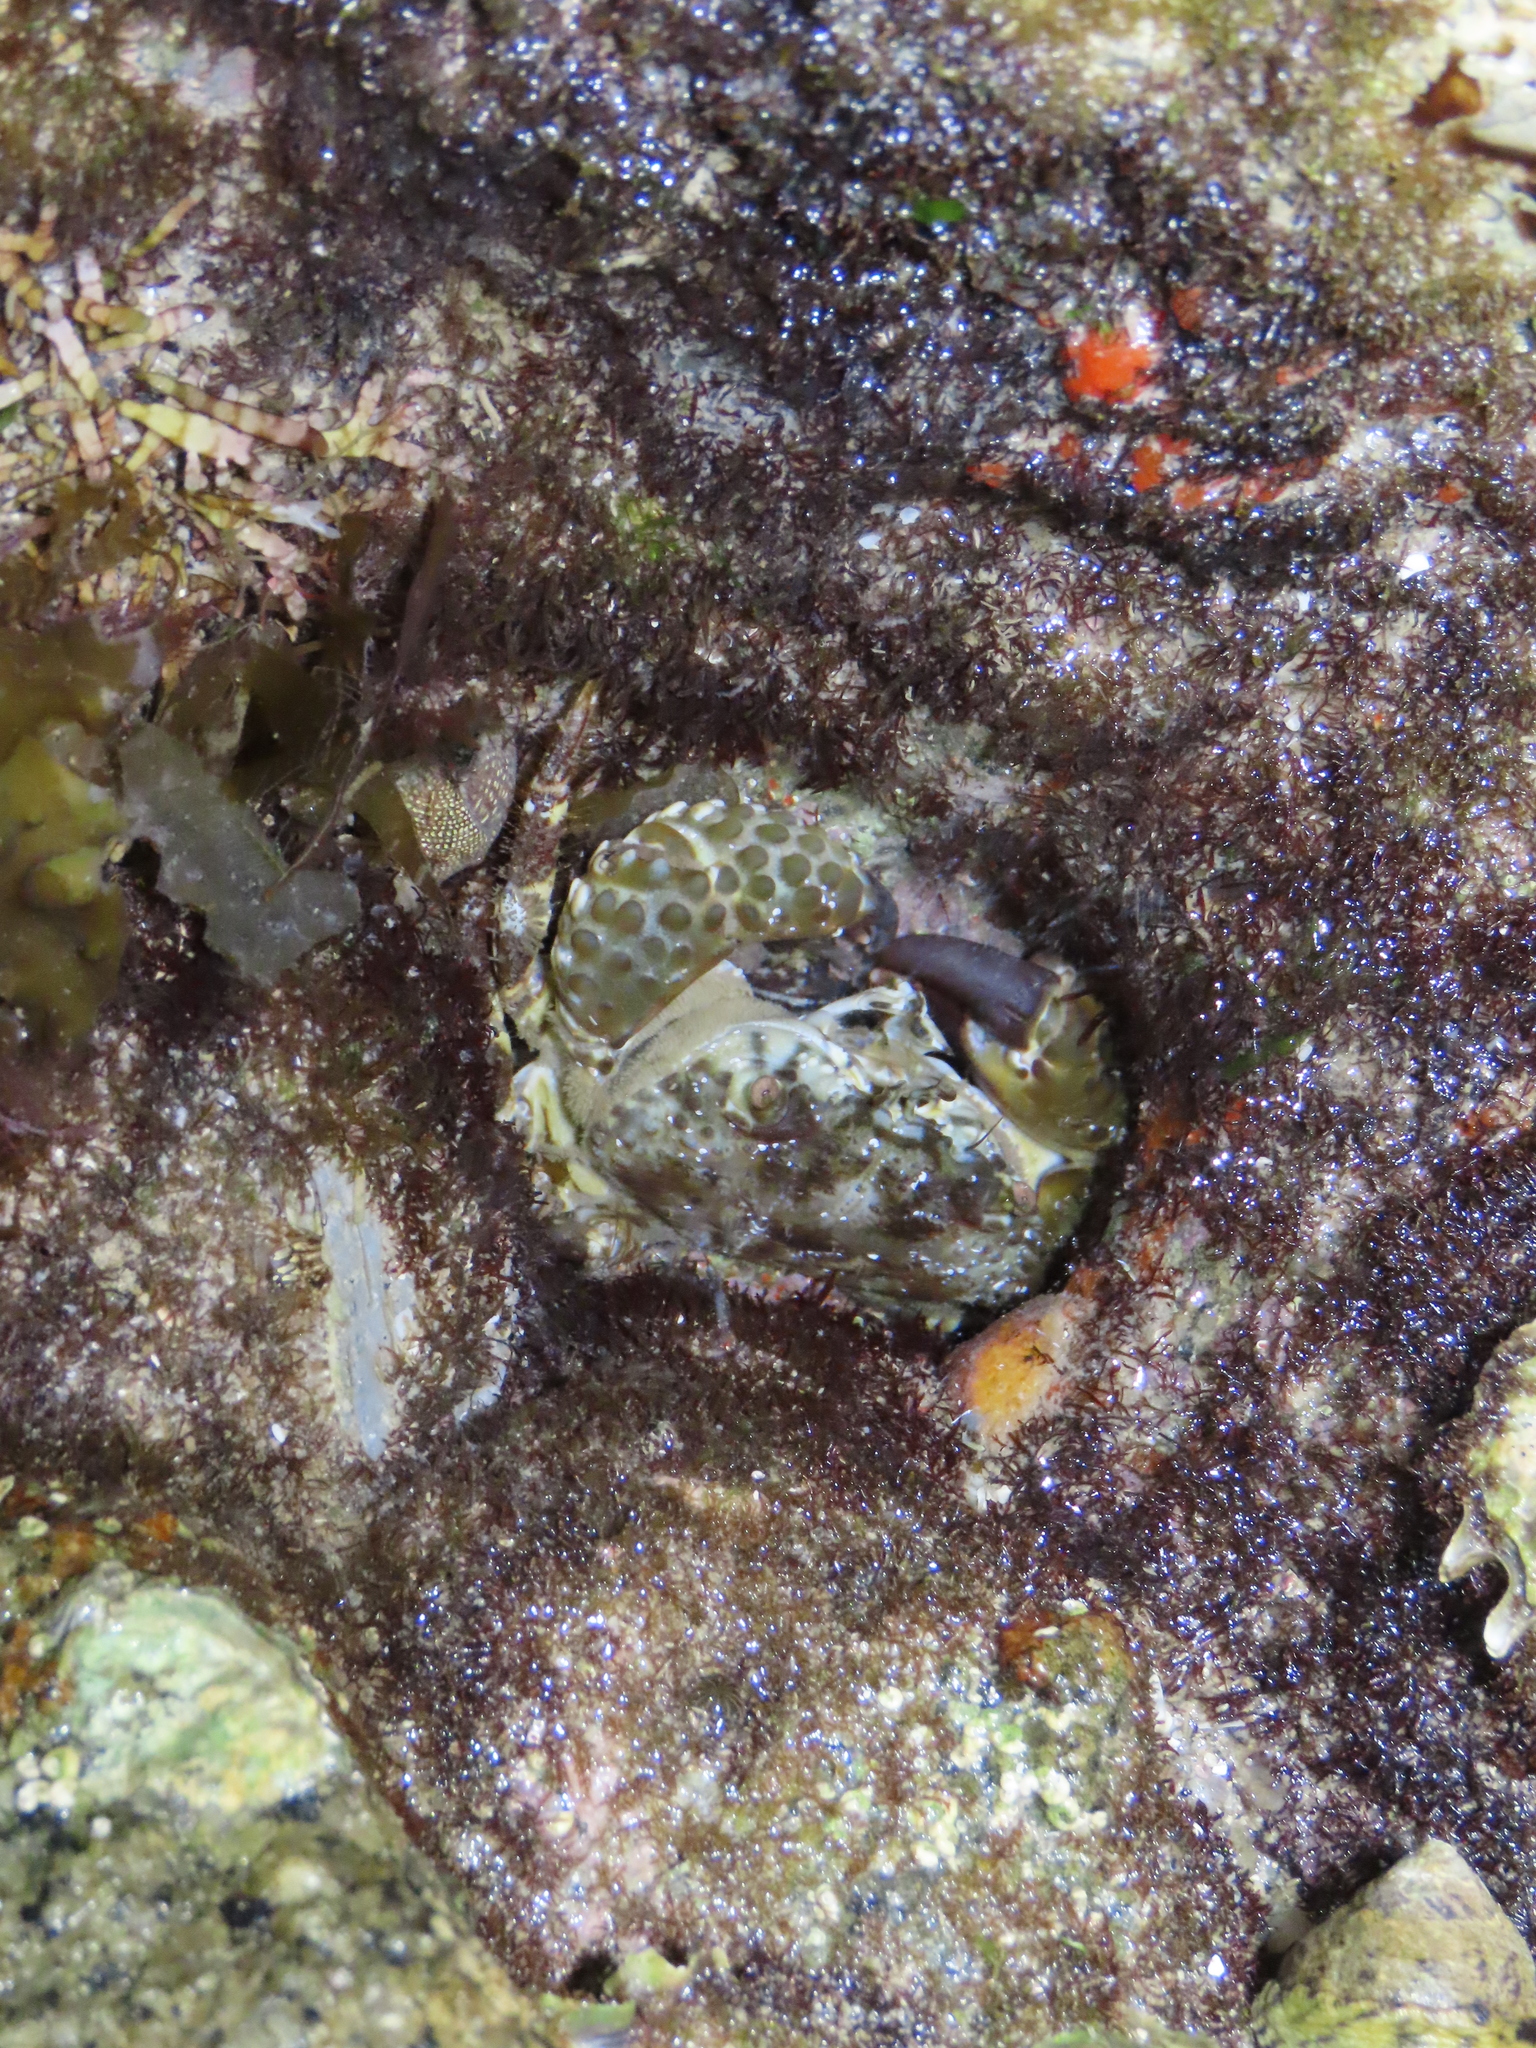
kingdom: Animalia
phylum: Arthropoda
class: Malacostraca
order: Decapoda
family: Eriphiidae
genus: Eriphia
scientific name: Eriphia squamata
